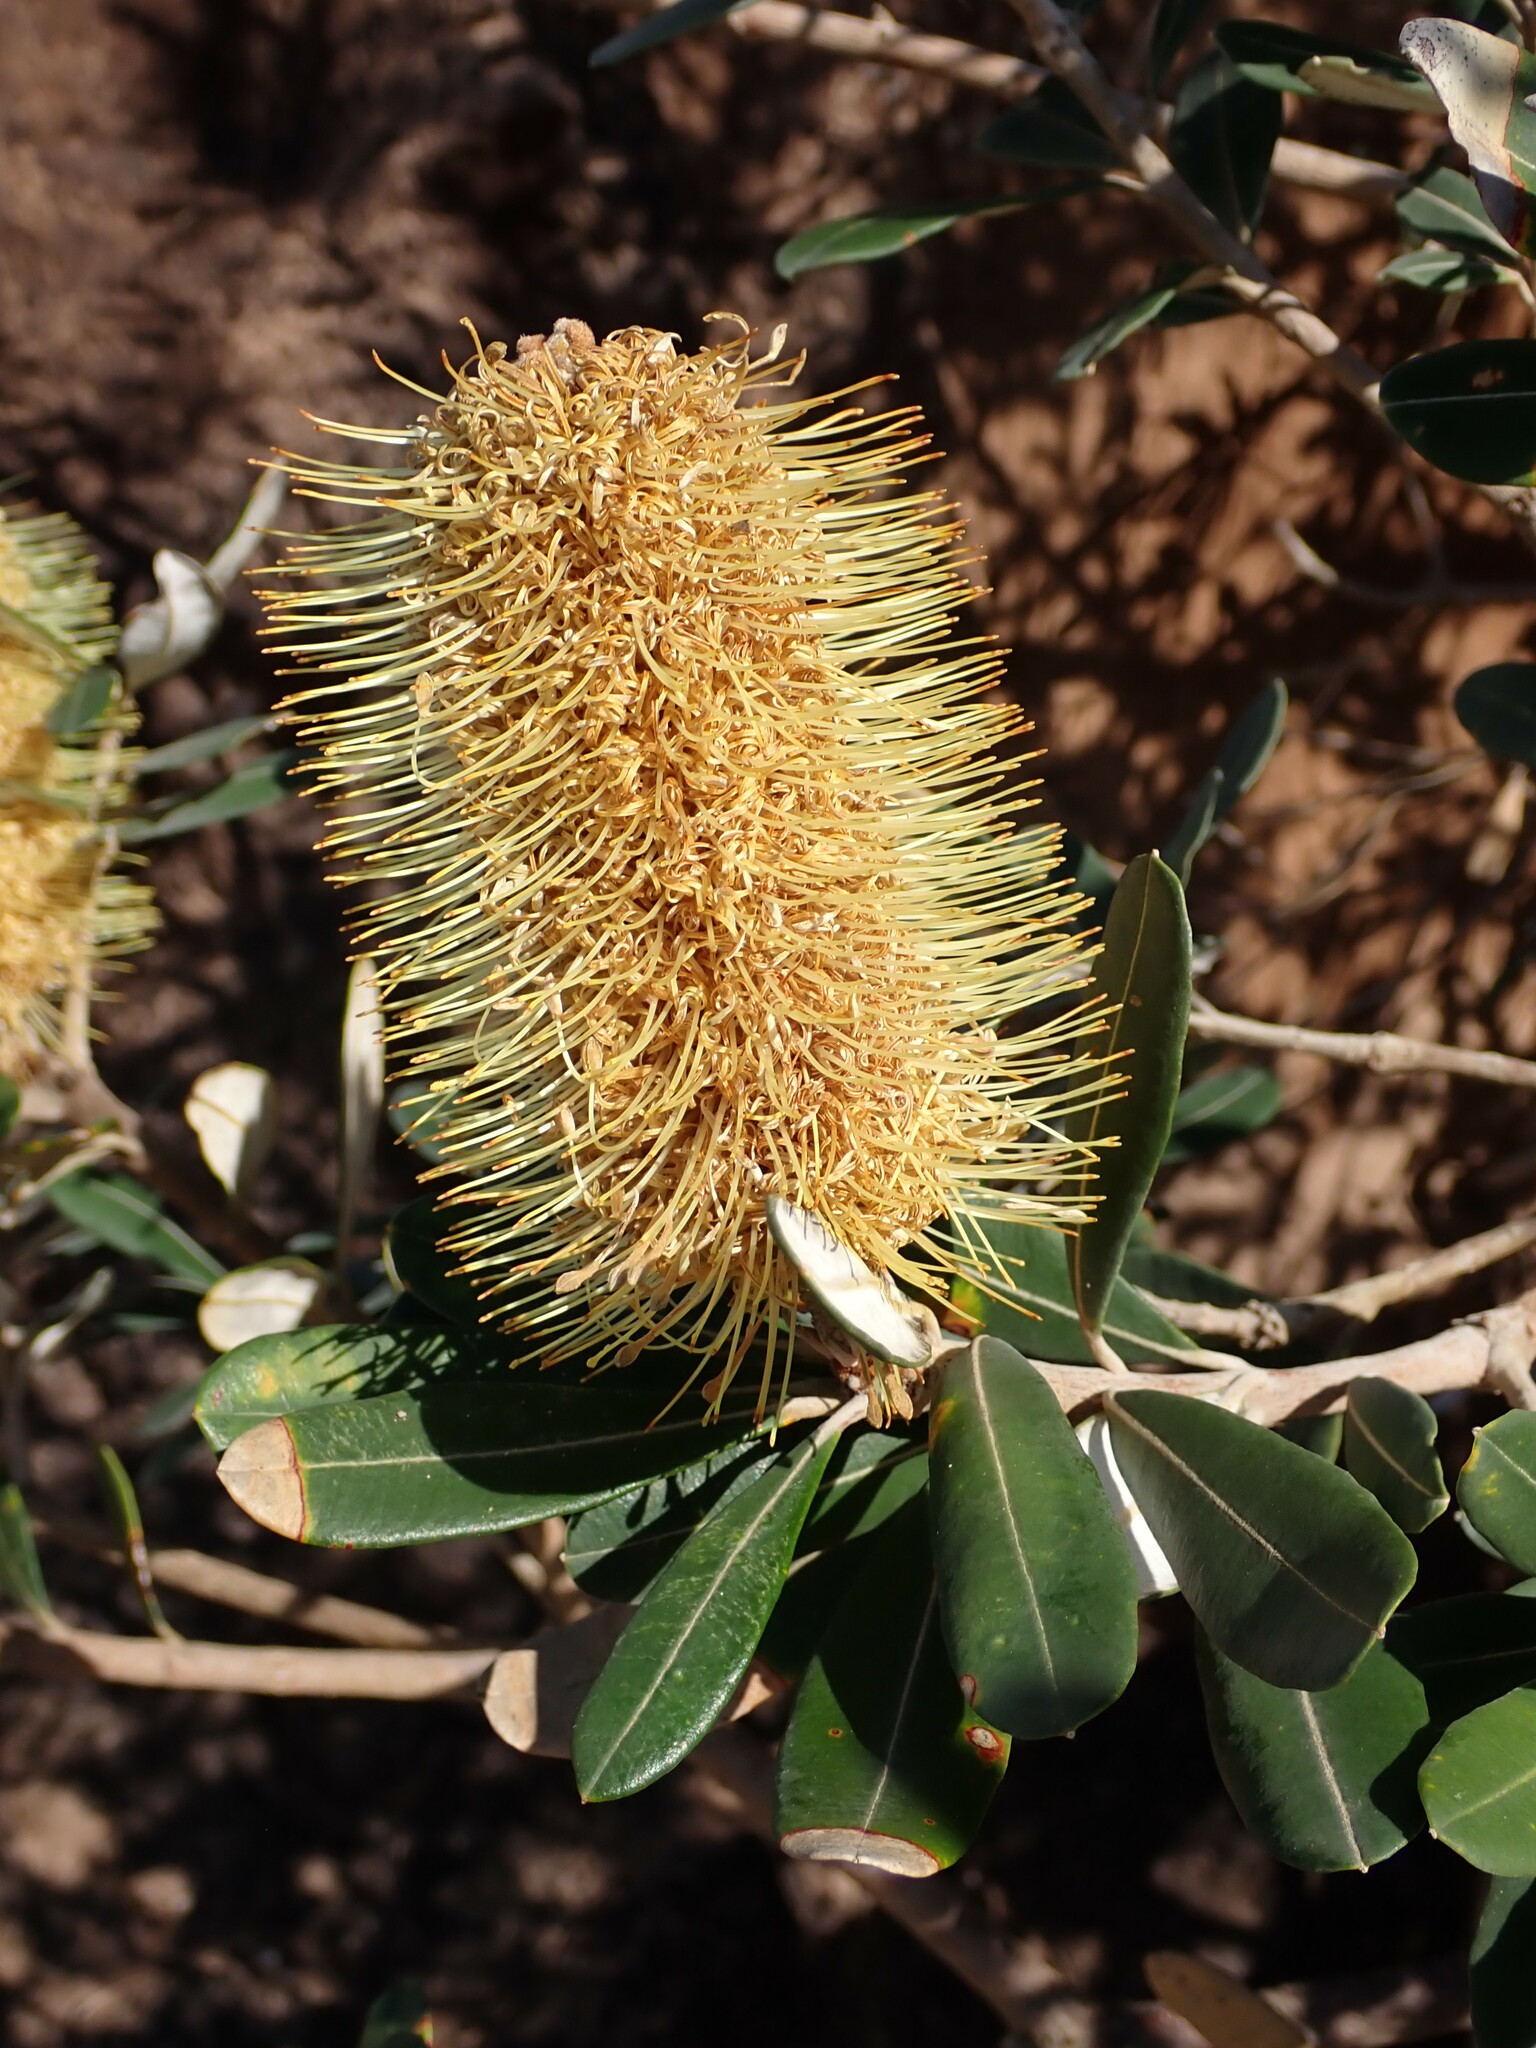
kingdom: Plantae
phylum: Tracheophyta
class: Magnoliopsida
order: Proteales
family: Proteaceae
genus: Banksia
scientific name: Banksia integrifolia
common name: White-honeysuckle
